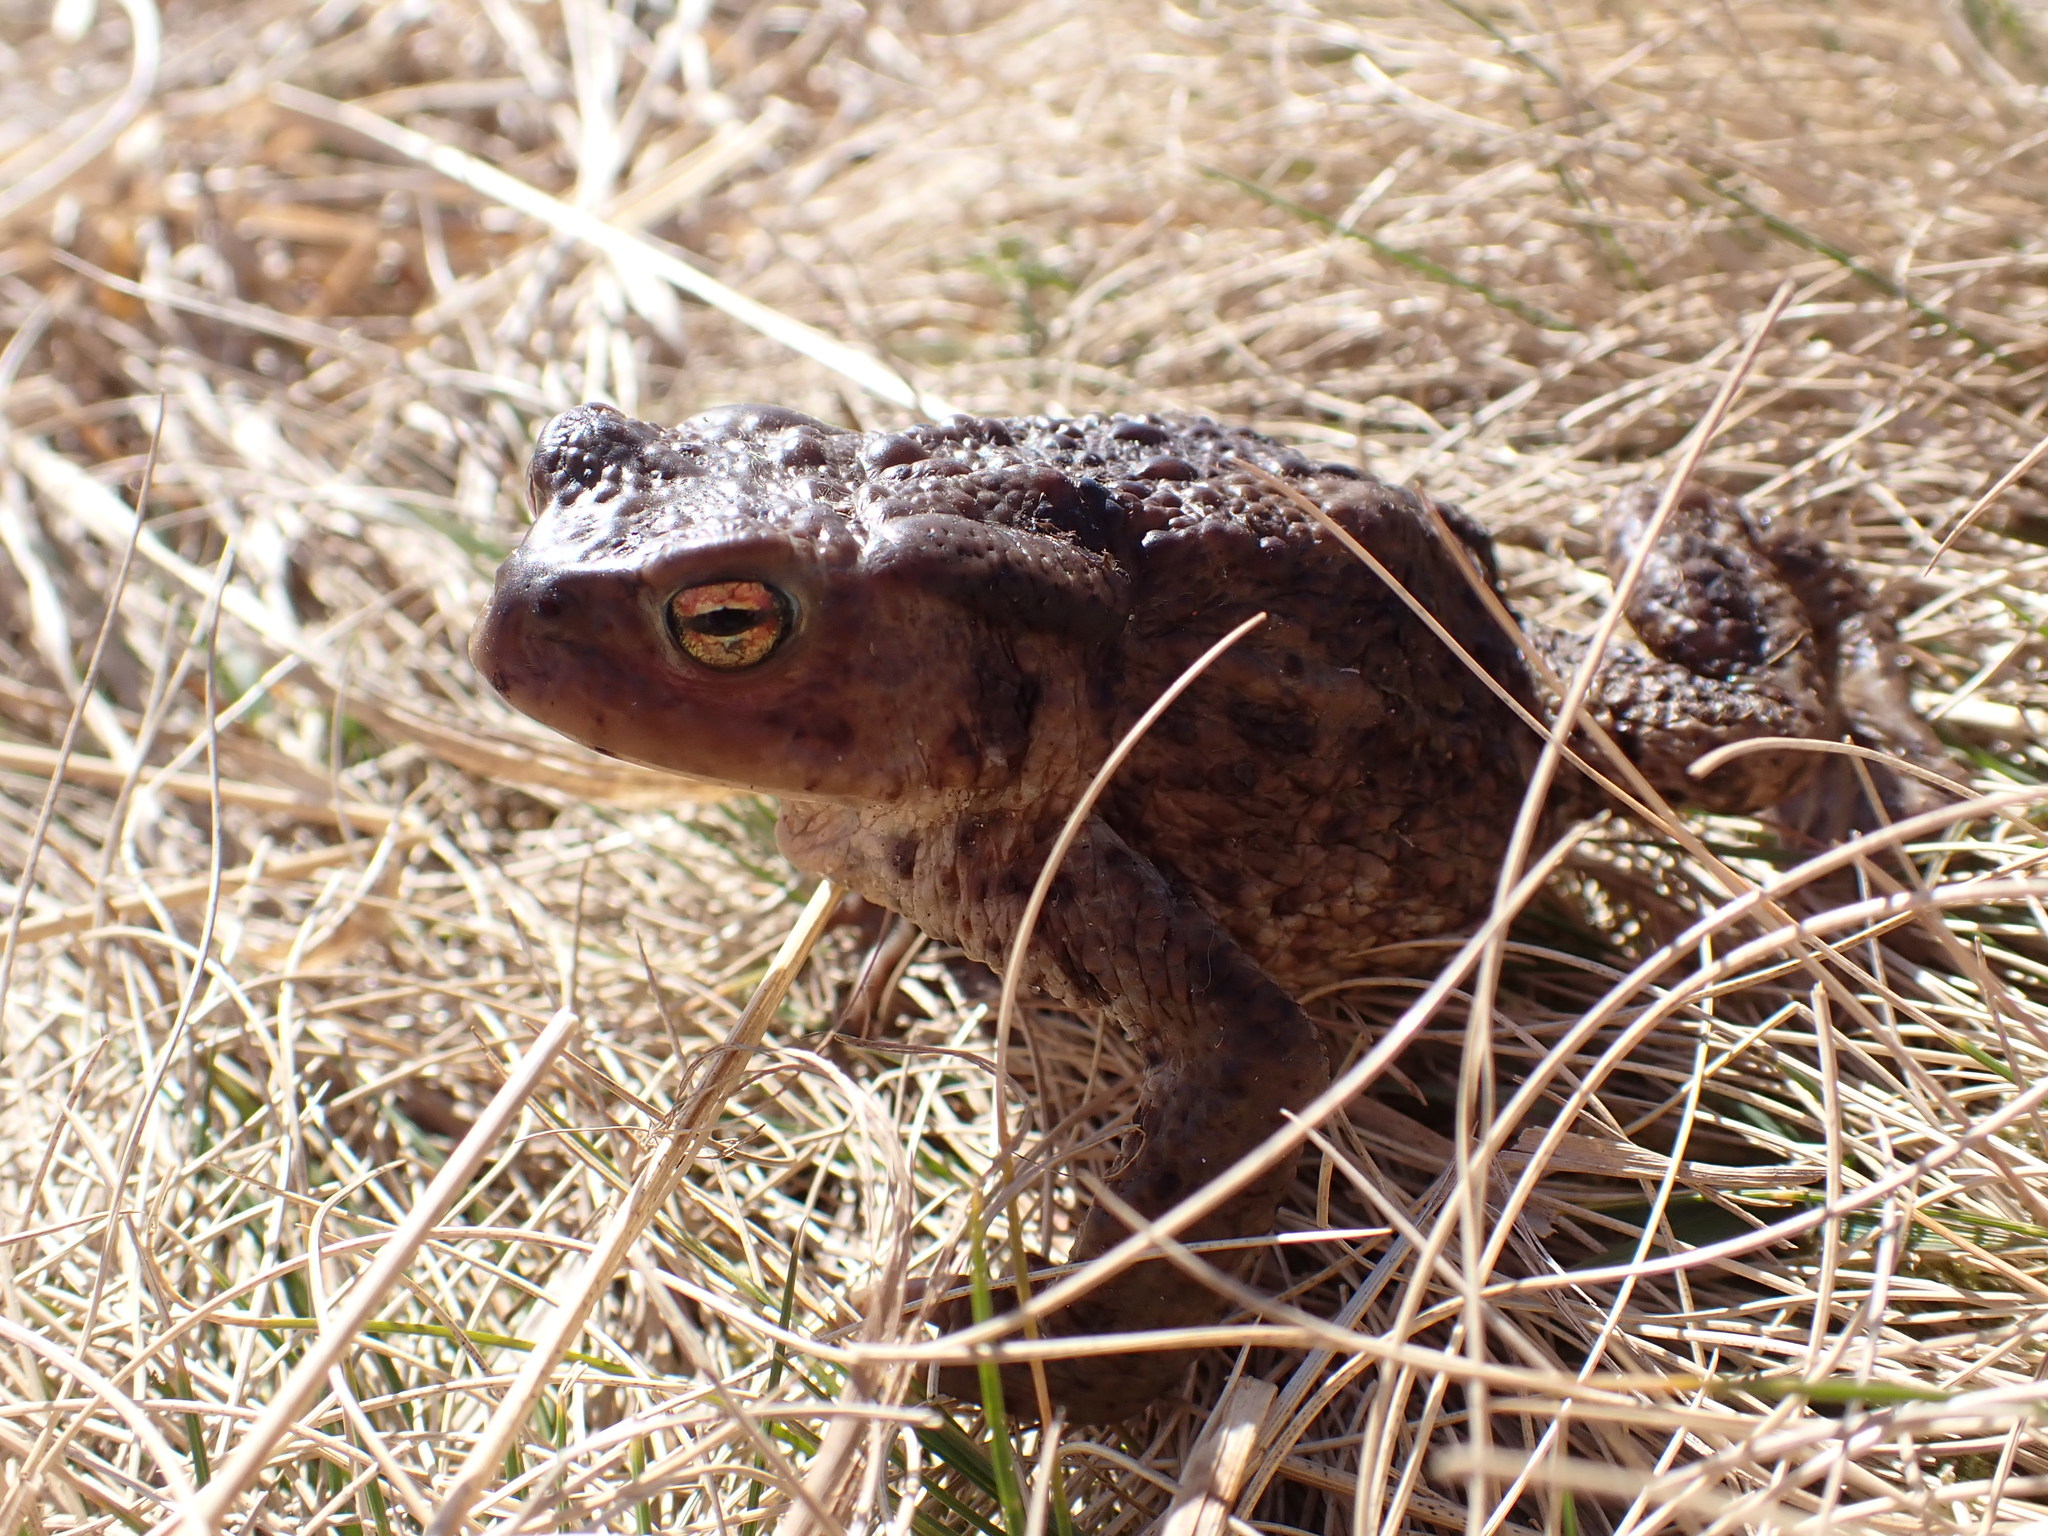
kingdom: Animalia
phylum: Chordata
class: Amphibia
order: Anura
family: Bufonidae
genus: Bufo
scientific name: Bufo bufo
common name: Common toad
